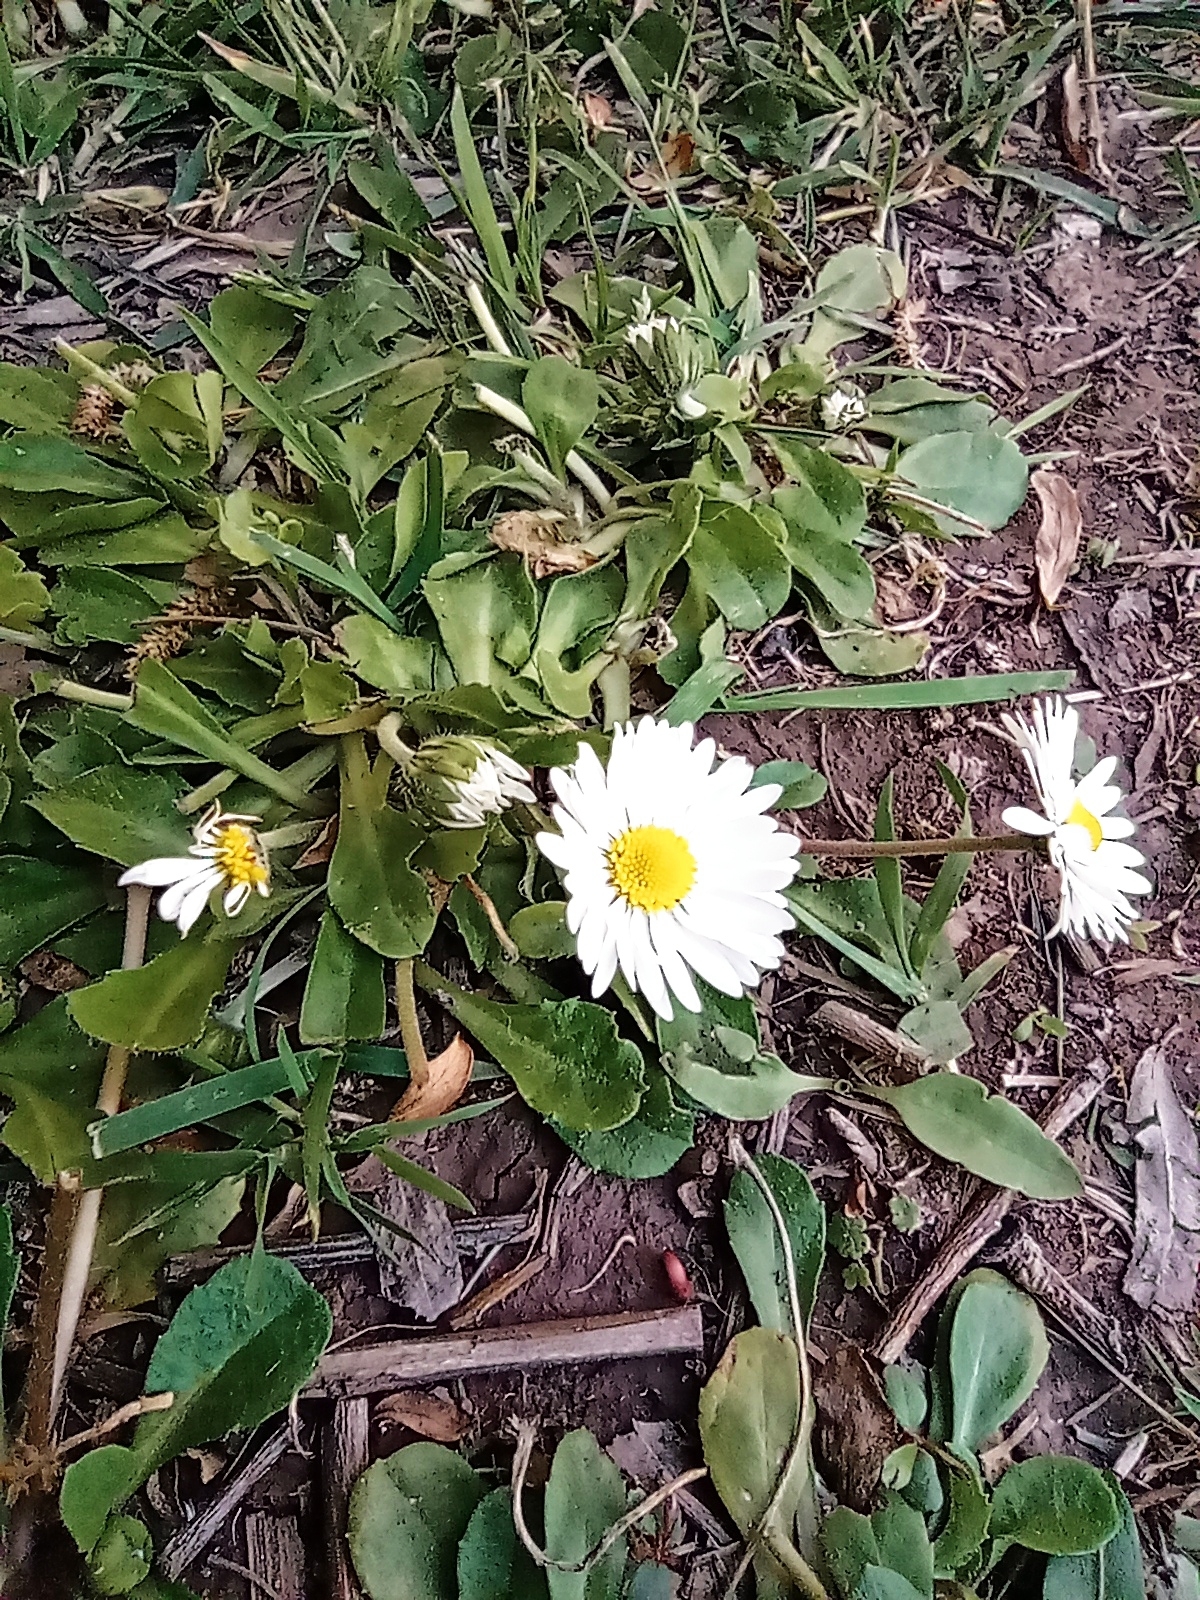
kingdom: Plantae
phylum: Tracheophyta
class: Magnoliopsida
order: Asterales
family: Asteraceae
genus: Bellis
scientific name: Bellis perennis
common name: Lawndaisy
